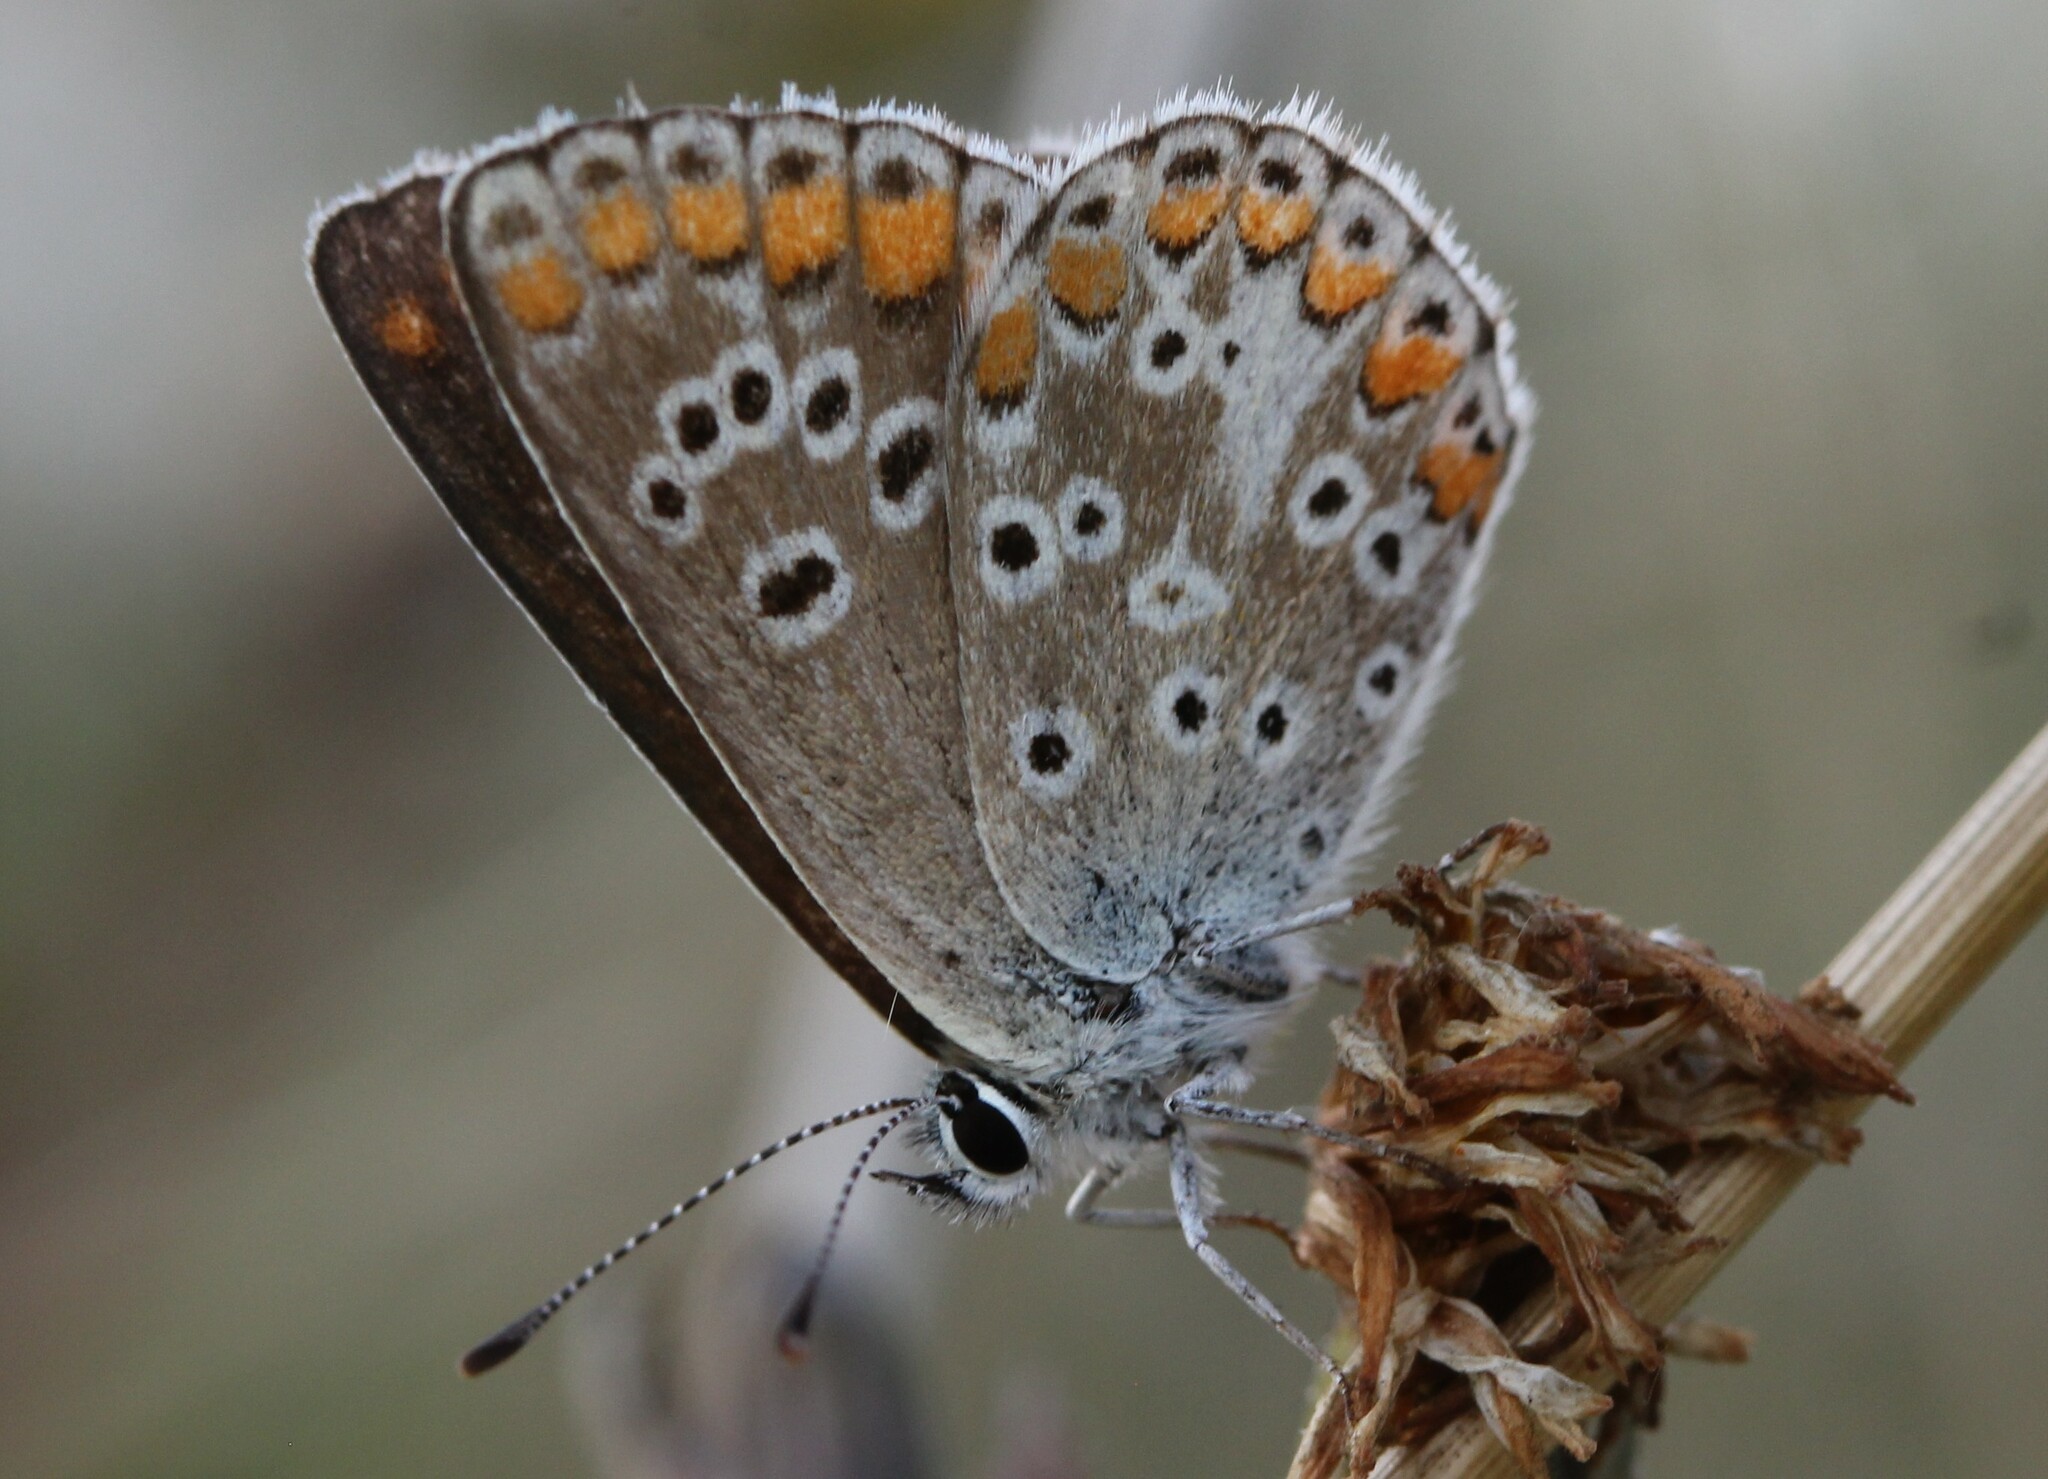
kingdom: Animalia
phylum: Arthropoda
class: Insecta
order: Lepidoptera
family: Lycaenidae
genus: Aricia
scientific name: Aricia agestis
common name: Brown argus
